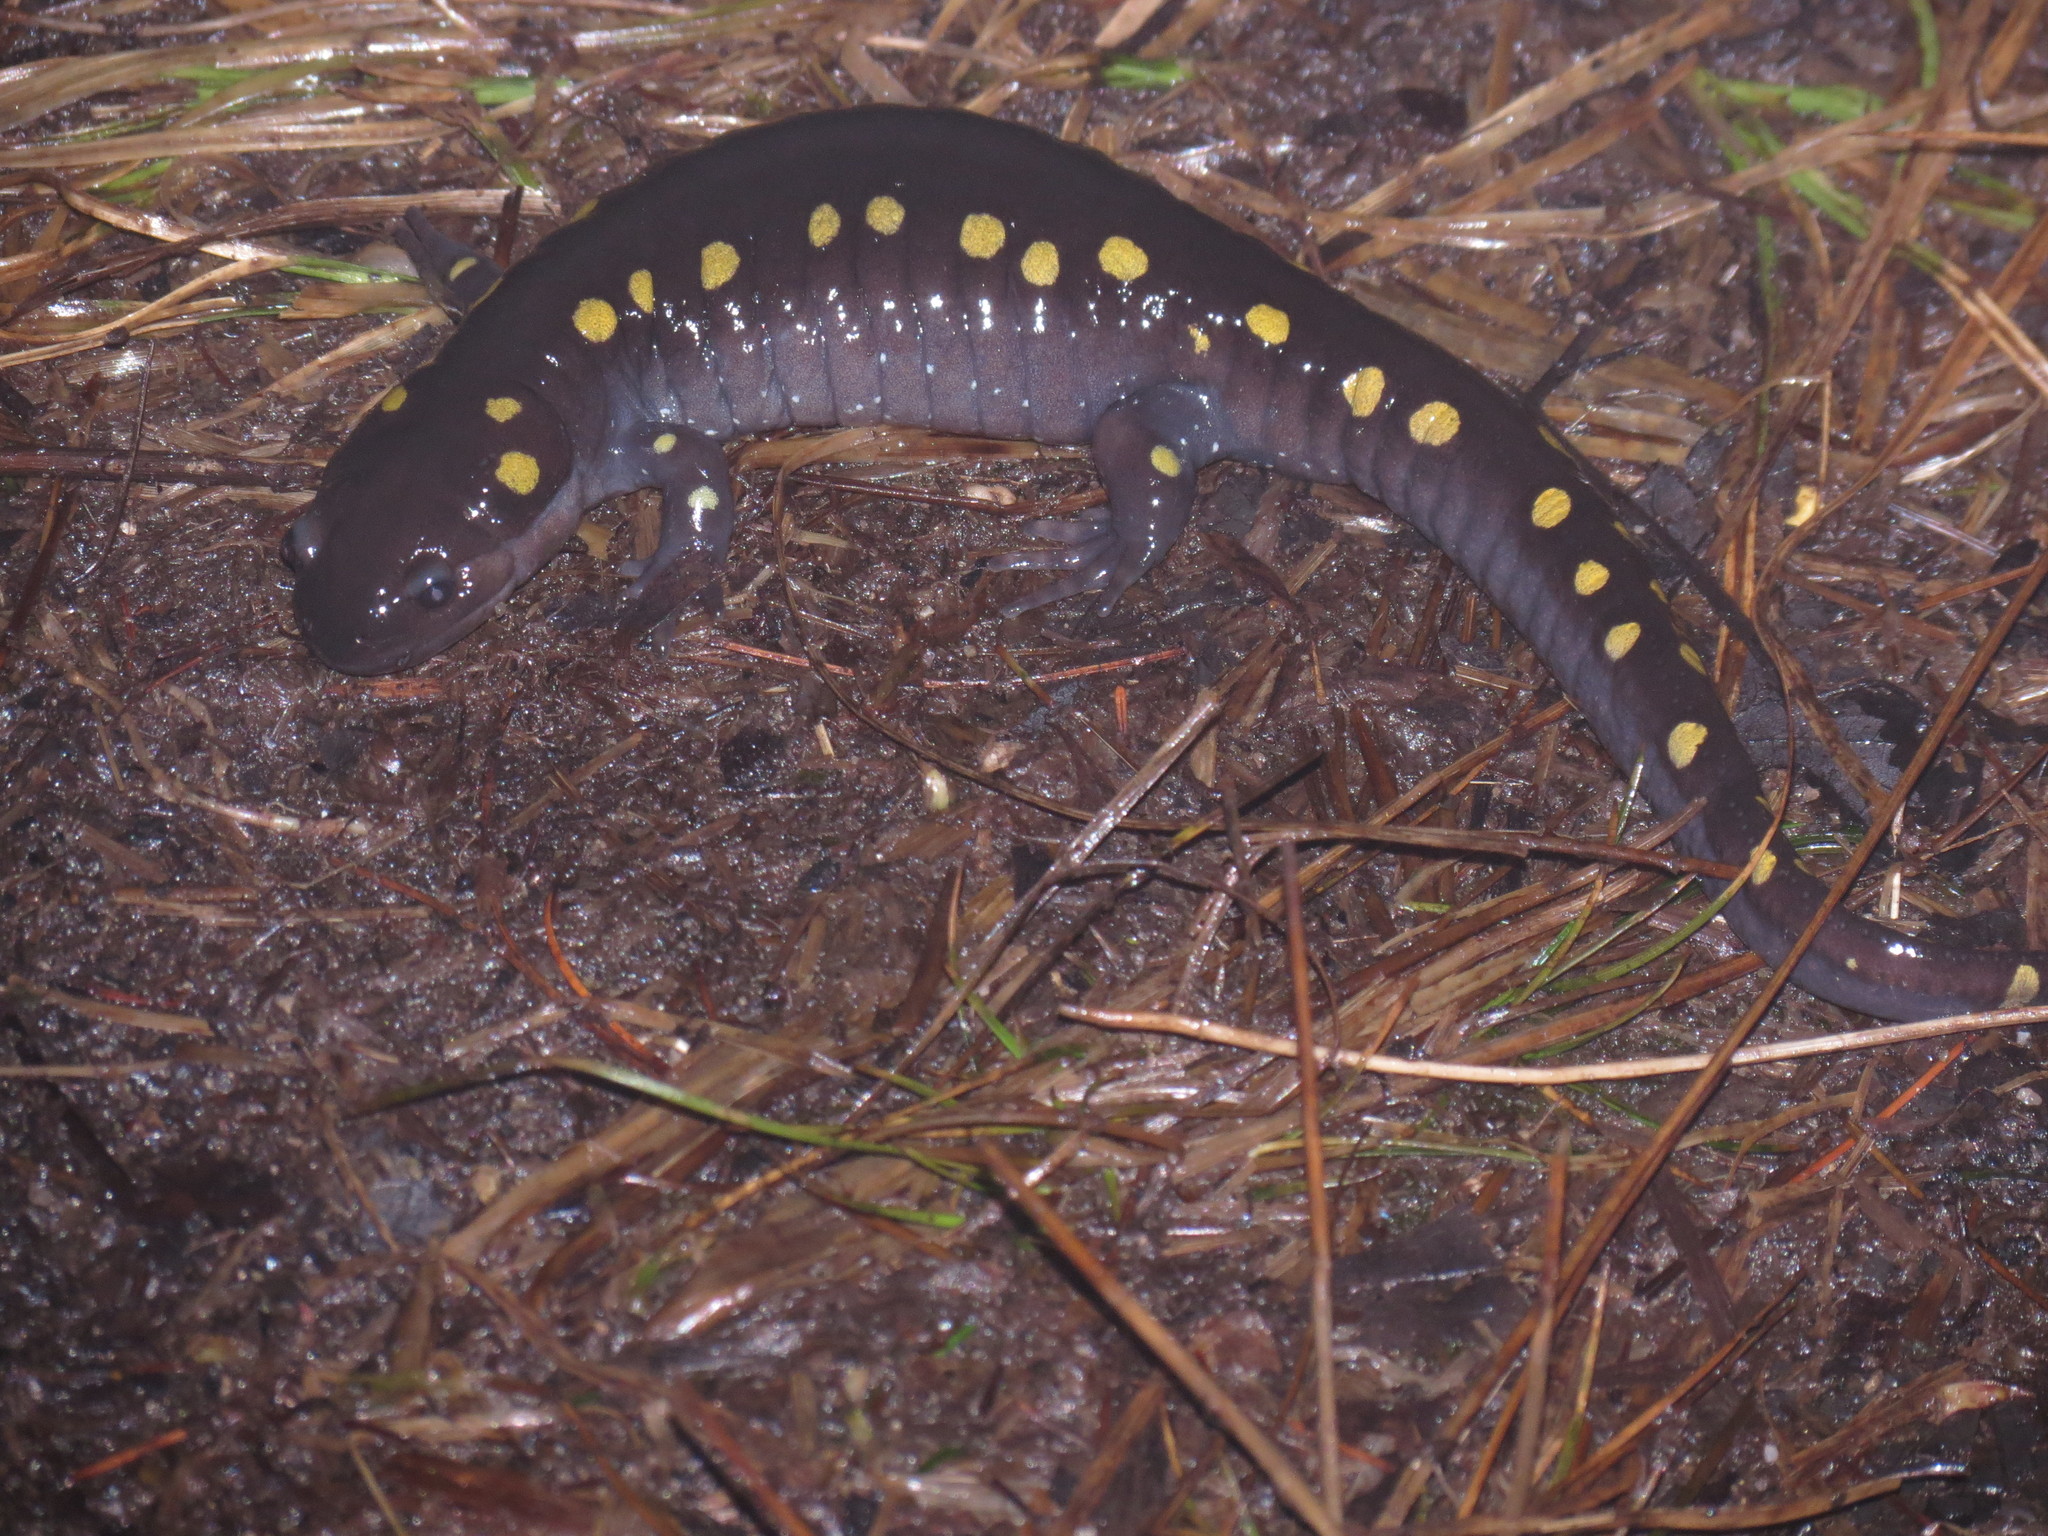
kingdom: Animalia
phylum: Chordata
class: Amphibia
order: Caudata
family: Ambystomatidae
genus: Ambystoma
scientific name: Ambystoma maculatum
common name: Spotted salamander
